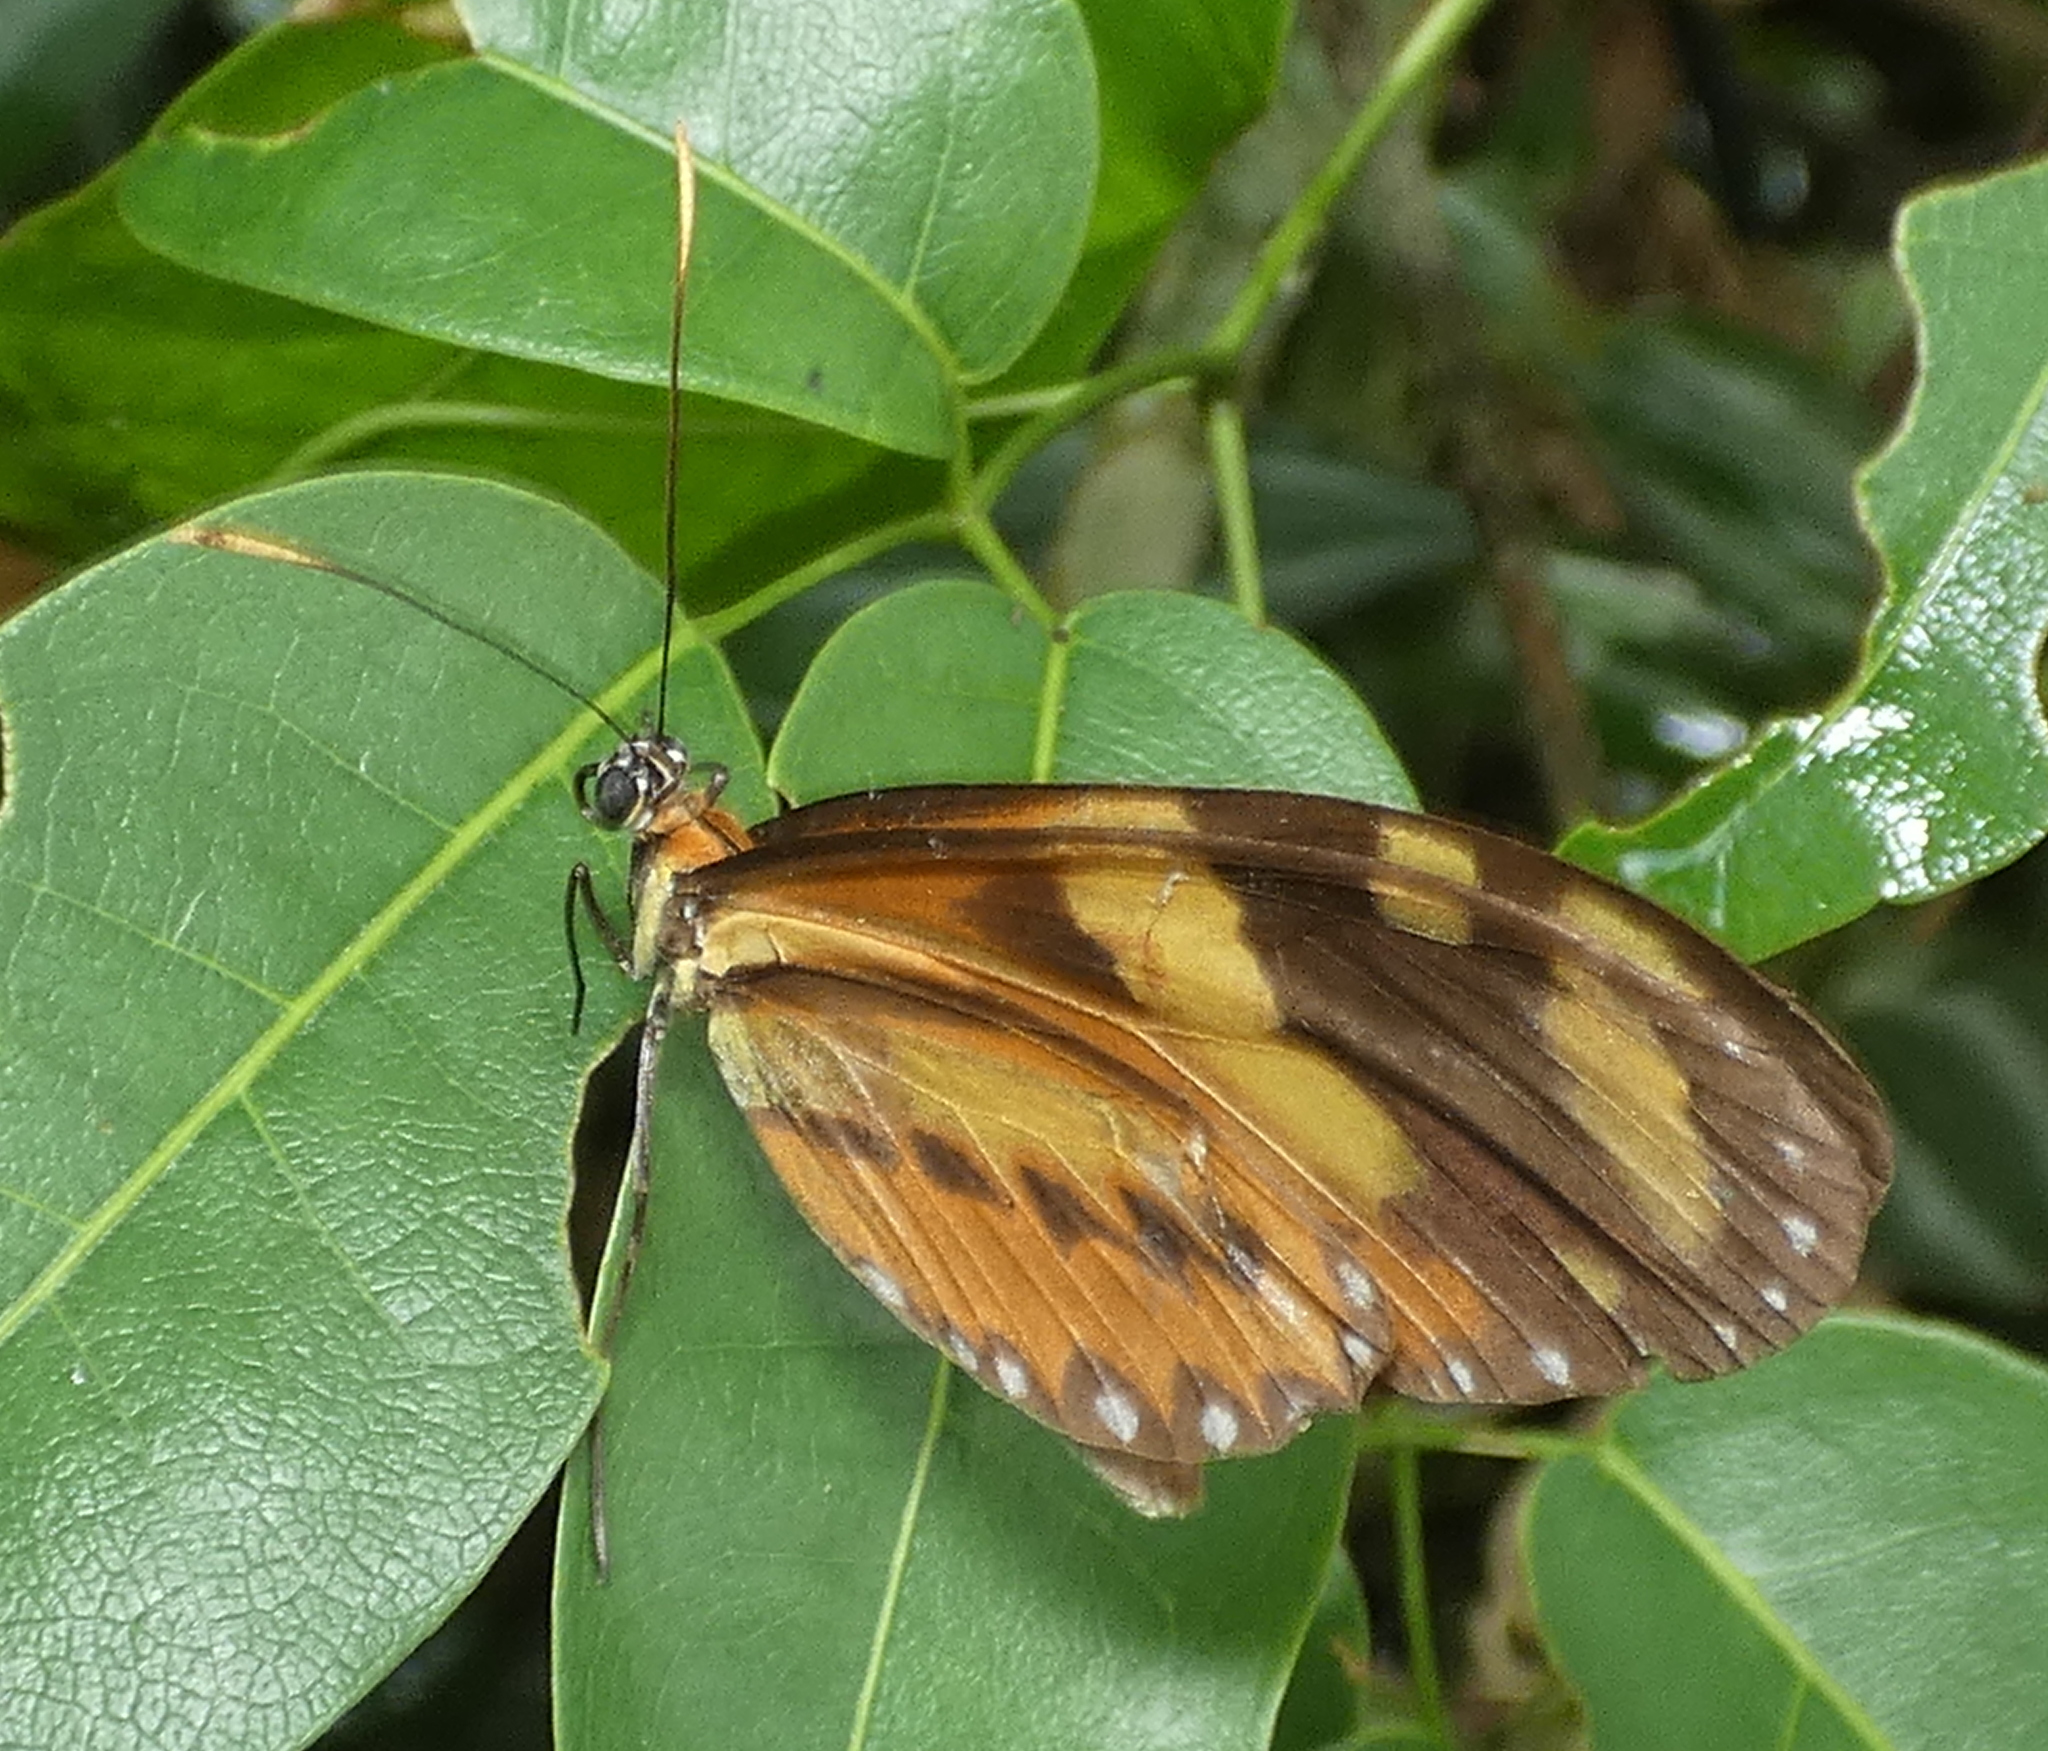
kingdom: Animalia
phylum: Arthropoda
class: Insecta
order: Lepidoptera
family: Nymphalidae
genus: Mechanitis
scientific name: Mechanitis lysimnia
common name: Lysimnia tigerwing
